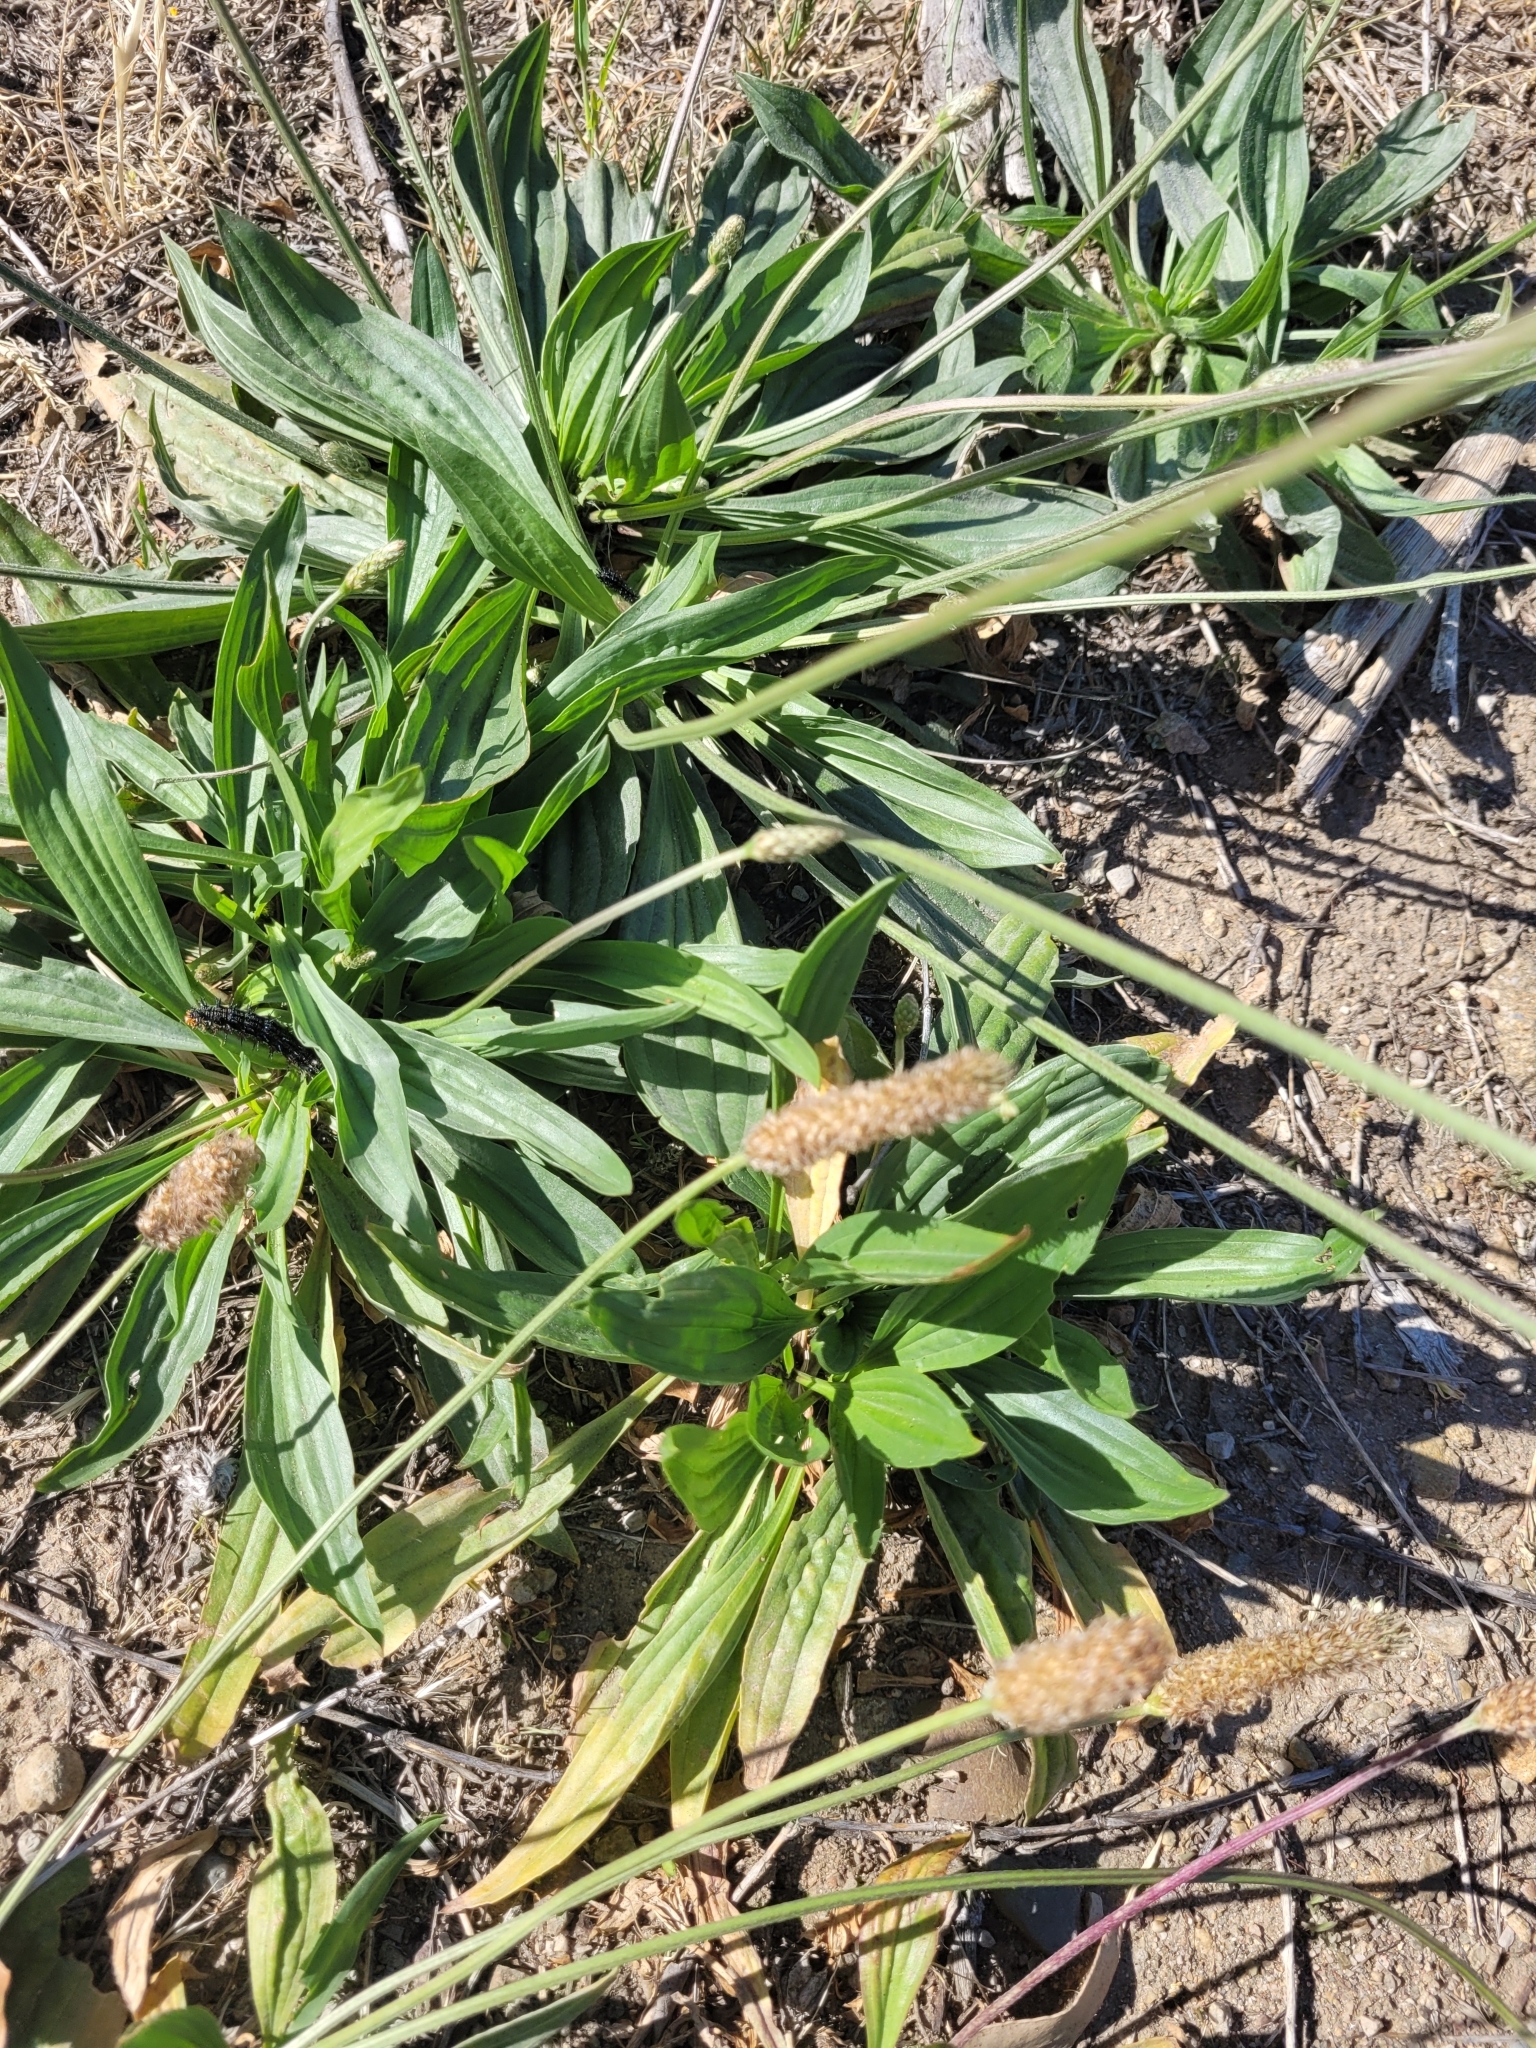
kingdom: Plantae
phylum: Tracheophyta
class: Magnoliopsida
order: Lamiales
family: Plantaginaceae
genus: Plantago
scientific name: Plantago lanceolata
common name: Ribwort plantain
